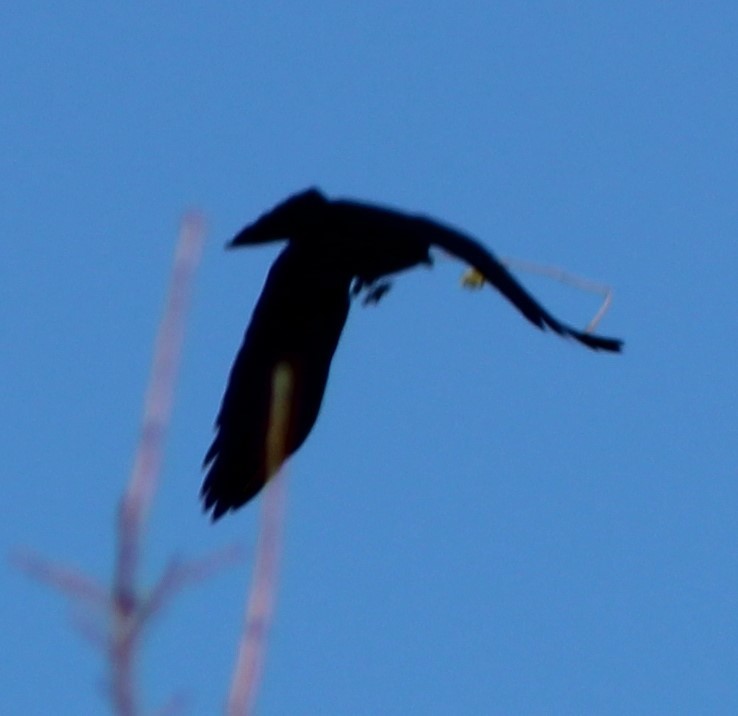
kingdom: Animalia
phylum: Chordata
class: Aves
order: Pelecaniformes
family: Ardeidae
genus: Ardea
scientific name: Ardea herodias
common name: Great blue heron
